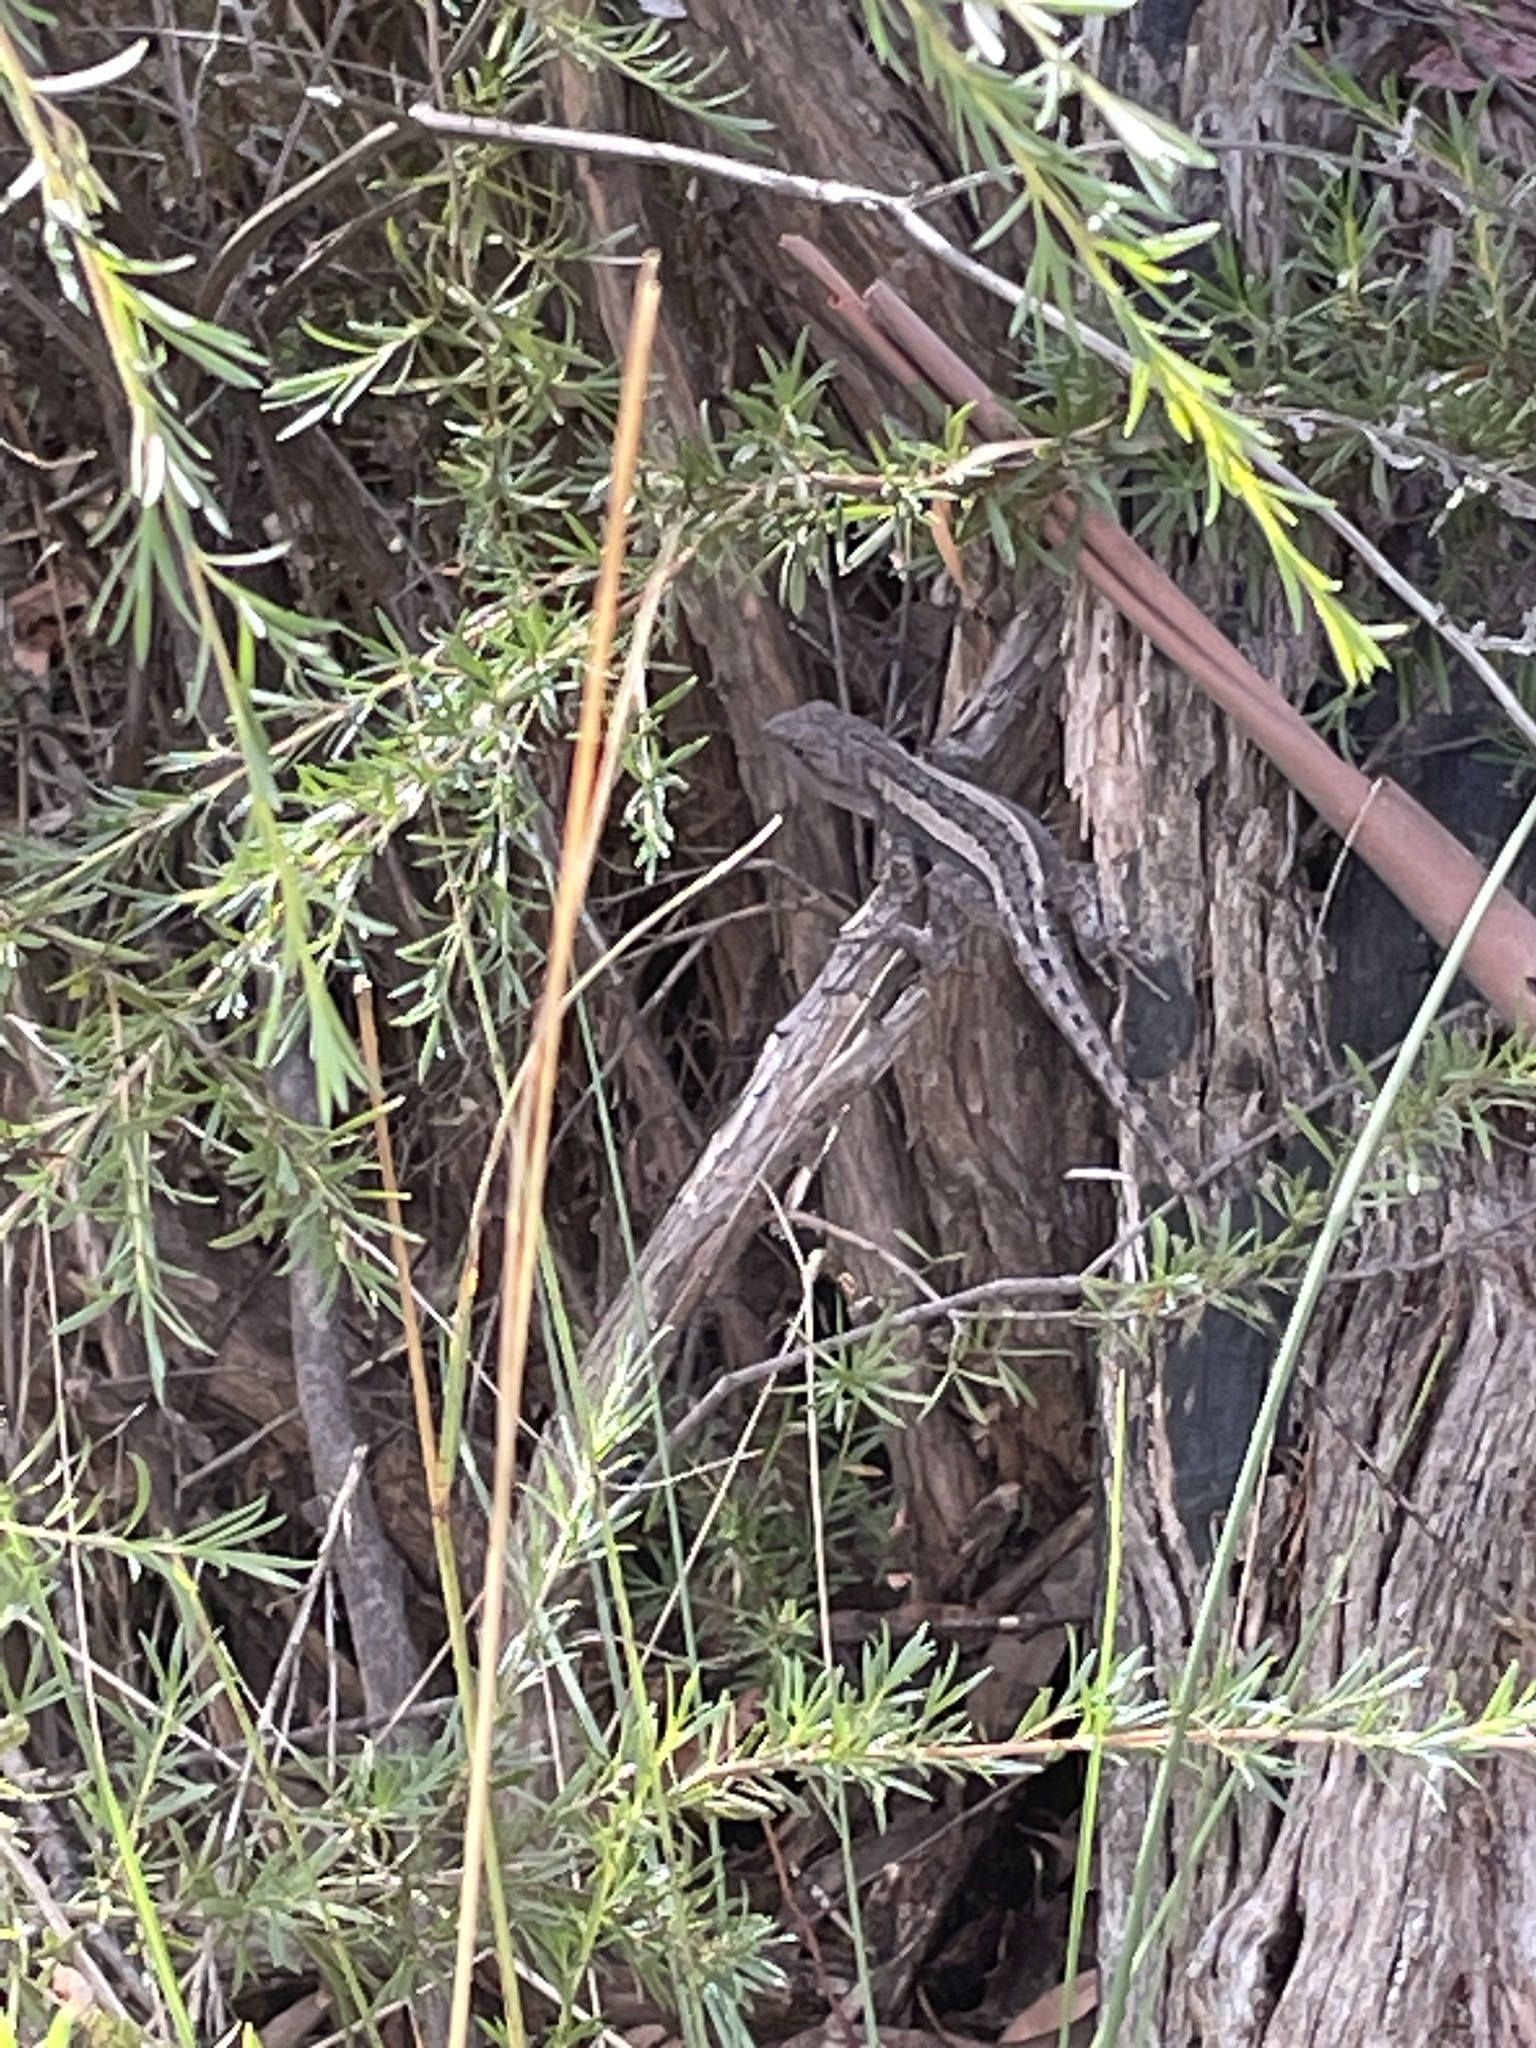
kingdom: Animalia
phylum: Chordata
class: Squamata
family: Agamidae
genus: Amphibolurus
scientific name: Amphibolurus muricatus
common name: Jacky lizard
